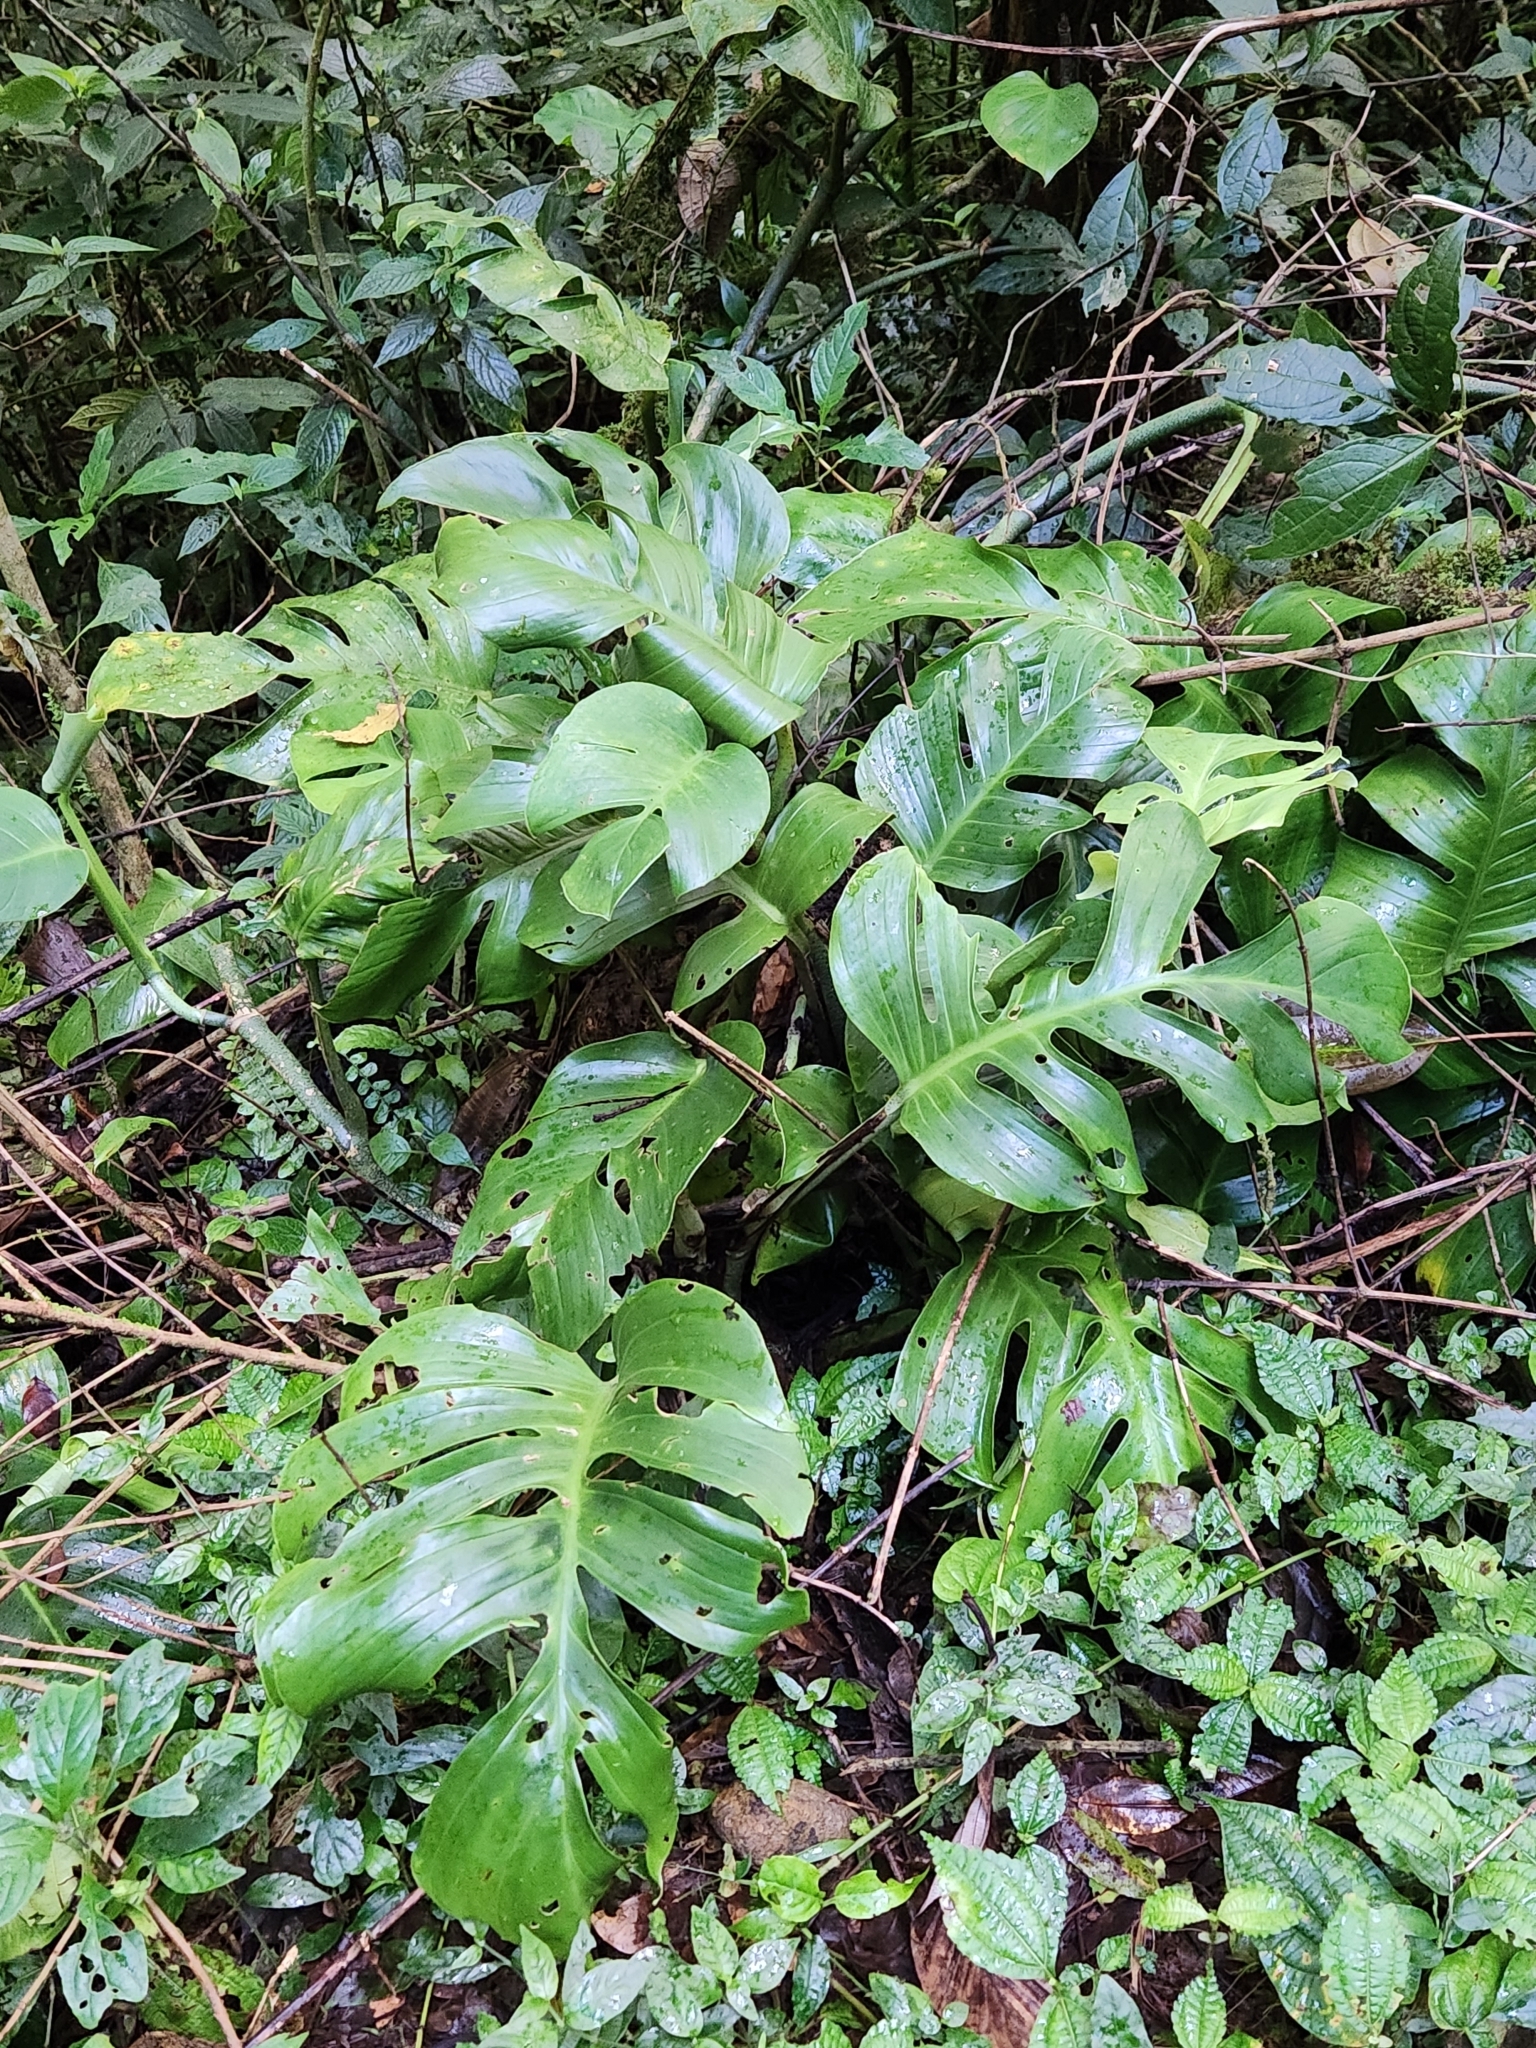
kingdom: Plantae
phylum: Tracheophyta
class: Liliopsida
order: Alismatales
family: Araceae
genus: Monstera
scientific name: Monstera monteverdensis
